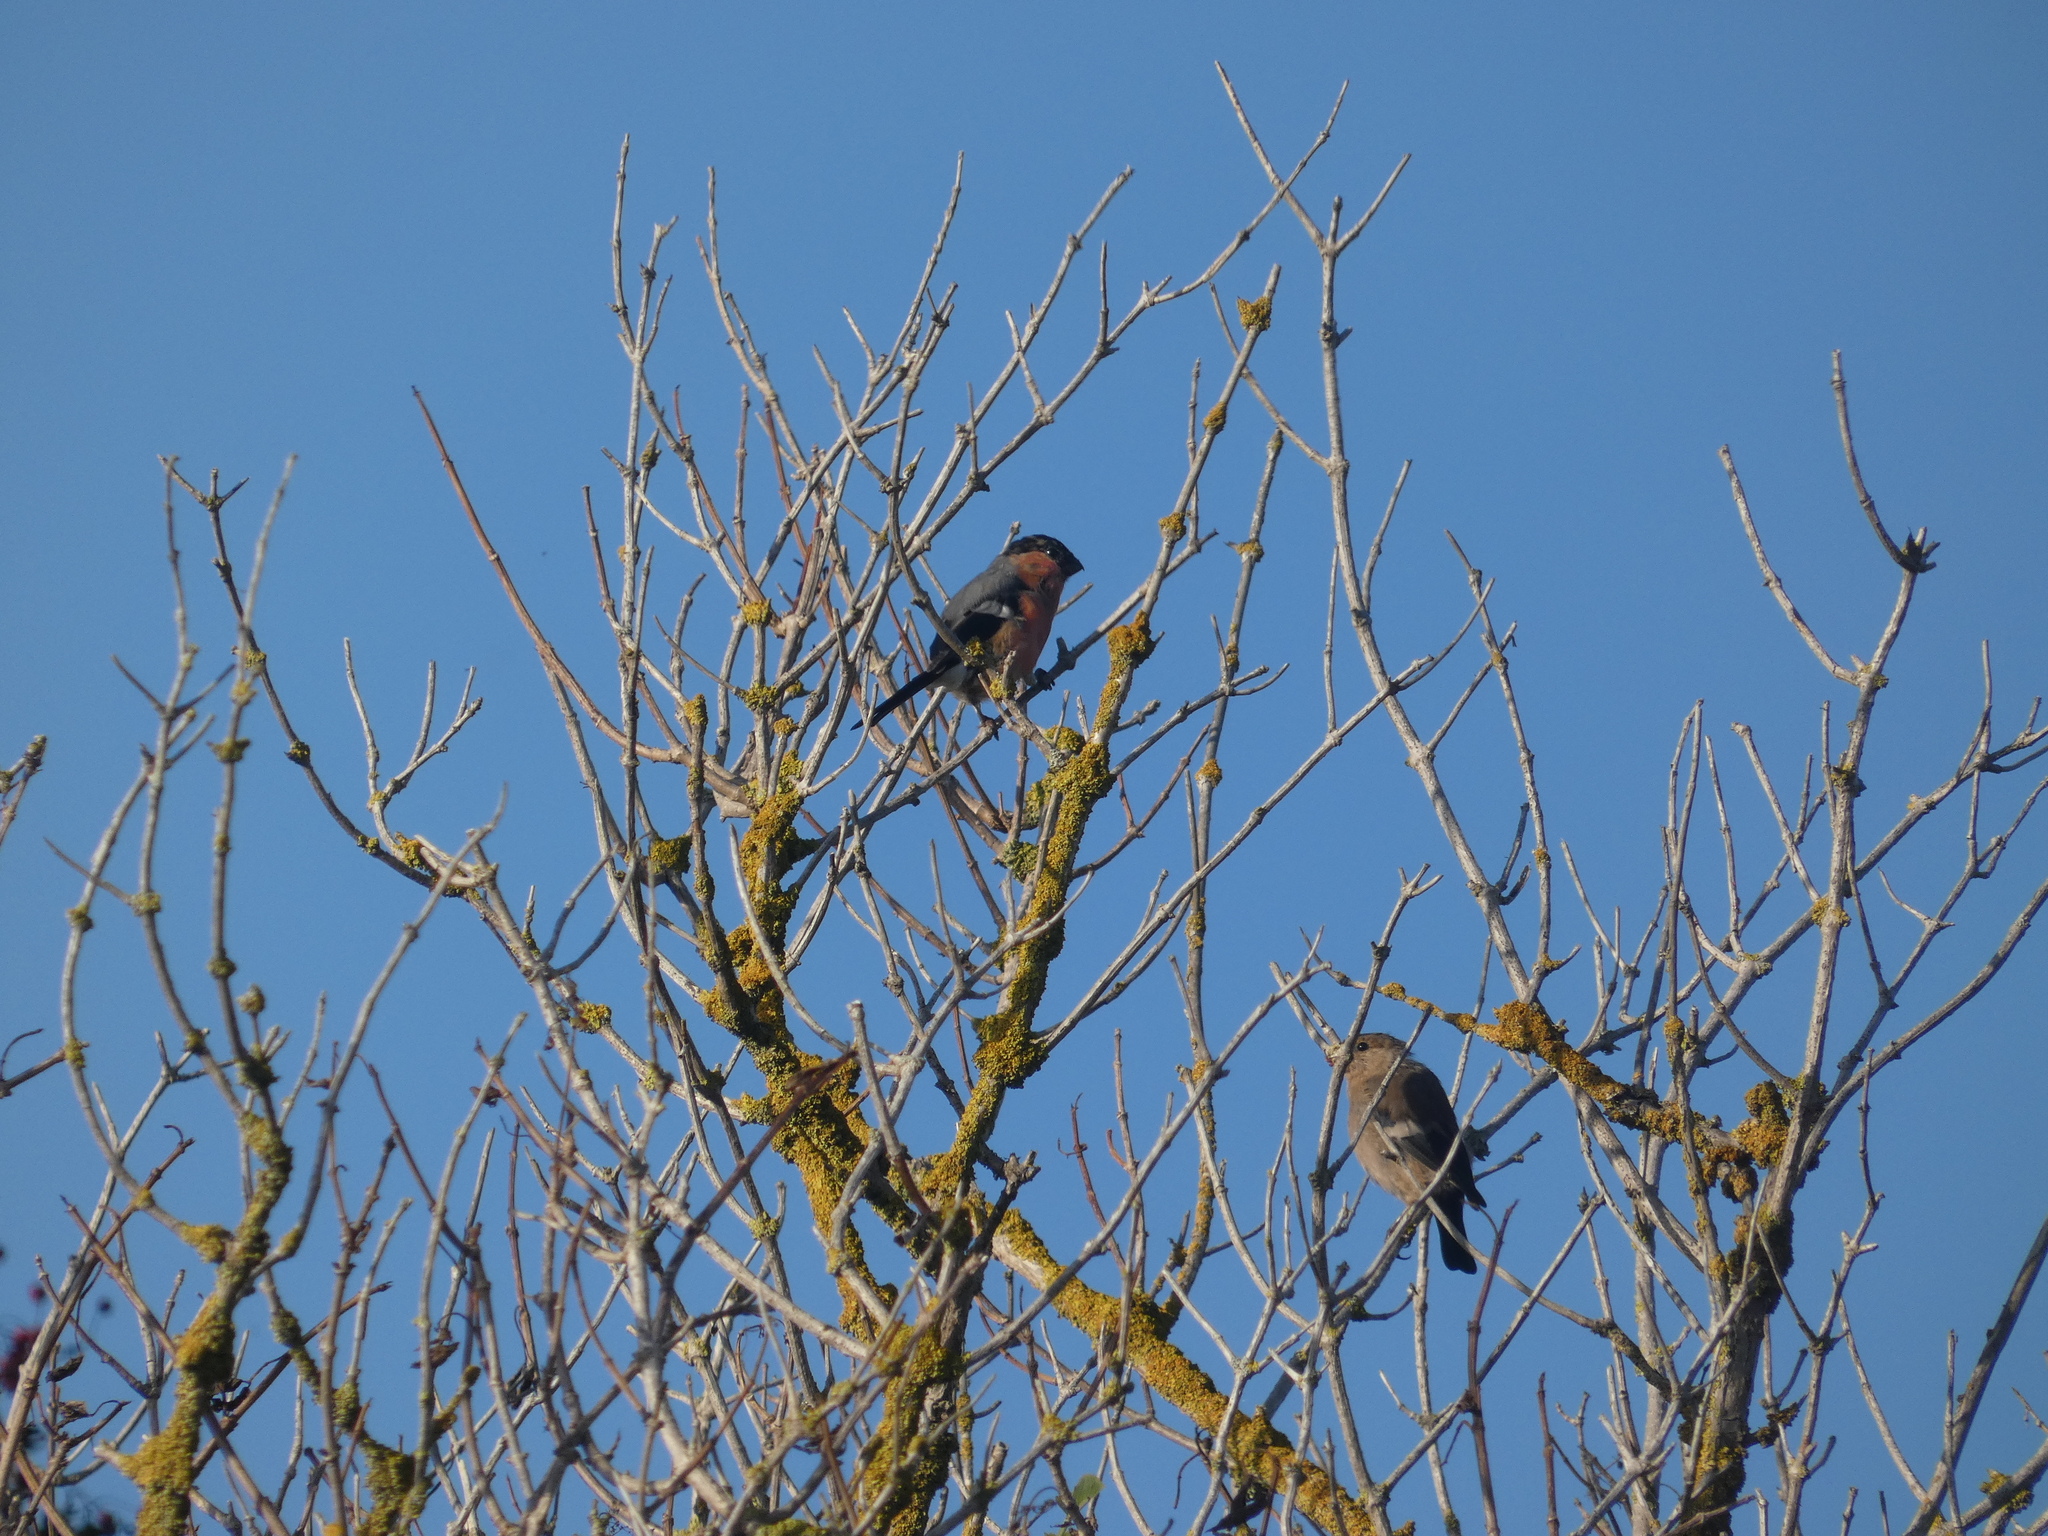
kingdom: Animalia
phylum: Chordata
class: Aves
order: Passeriformes
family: Fringillidae
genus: Pyrrhula
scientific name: Pyrrhula pyrrhula
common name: Eurasian bullfinch
